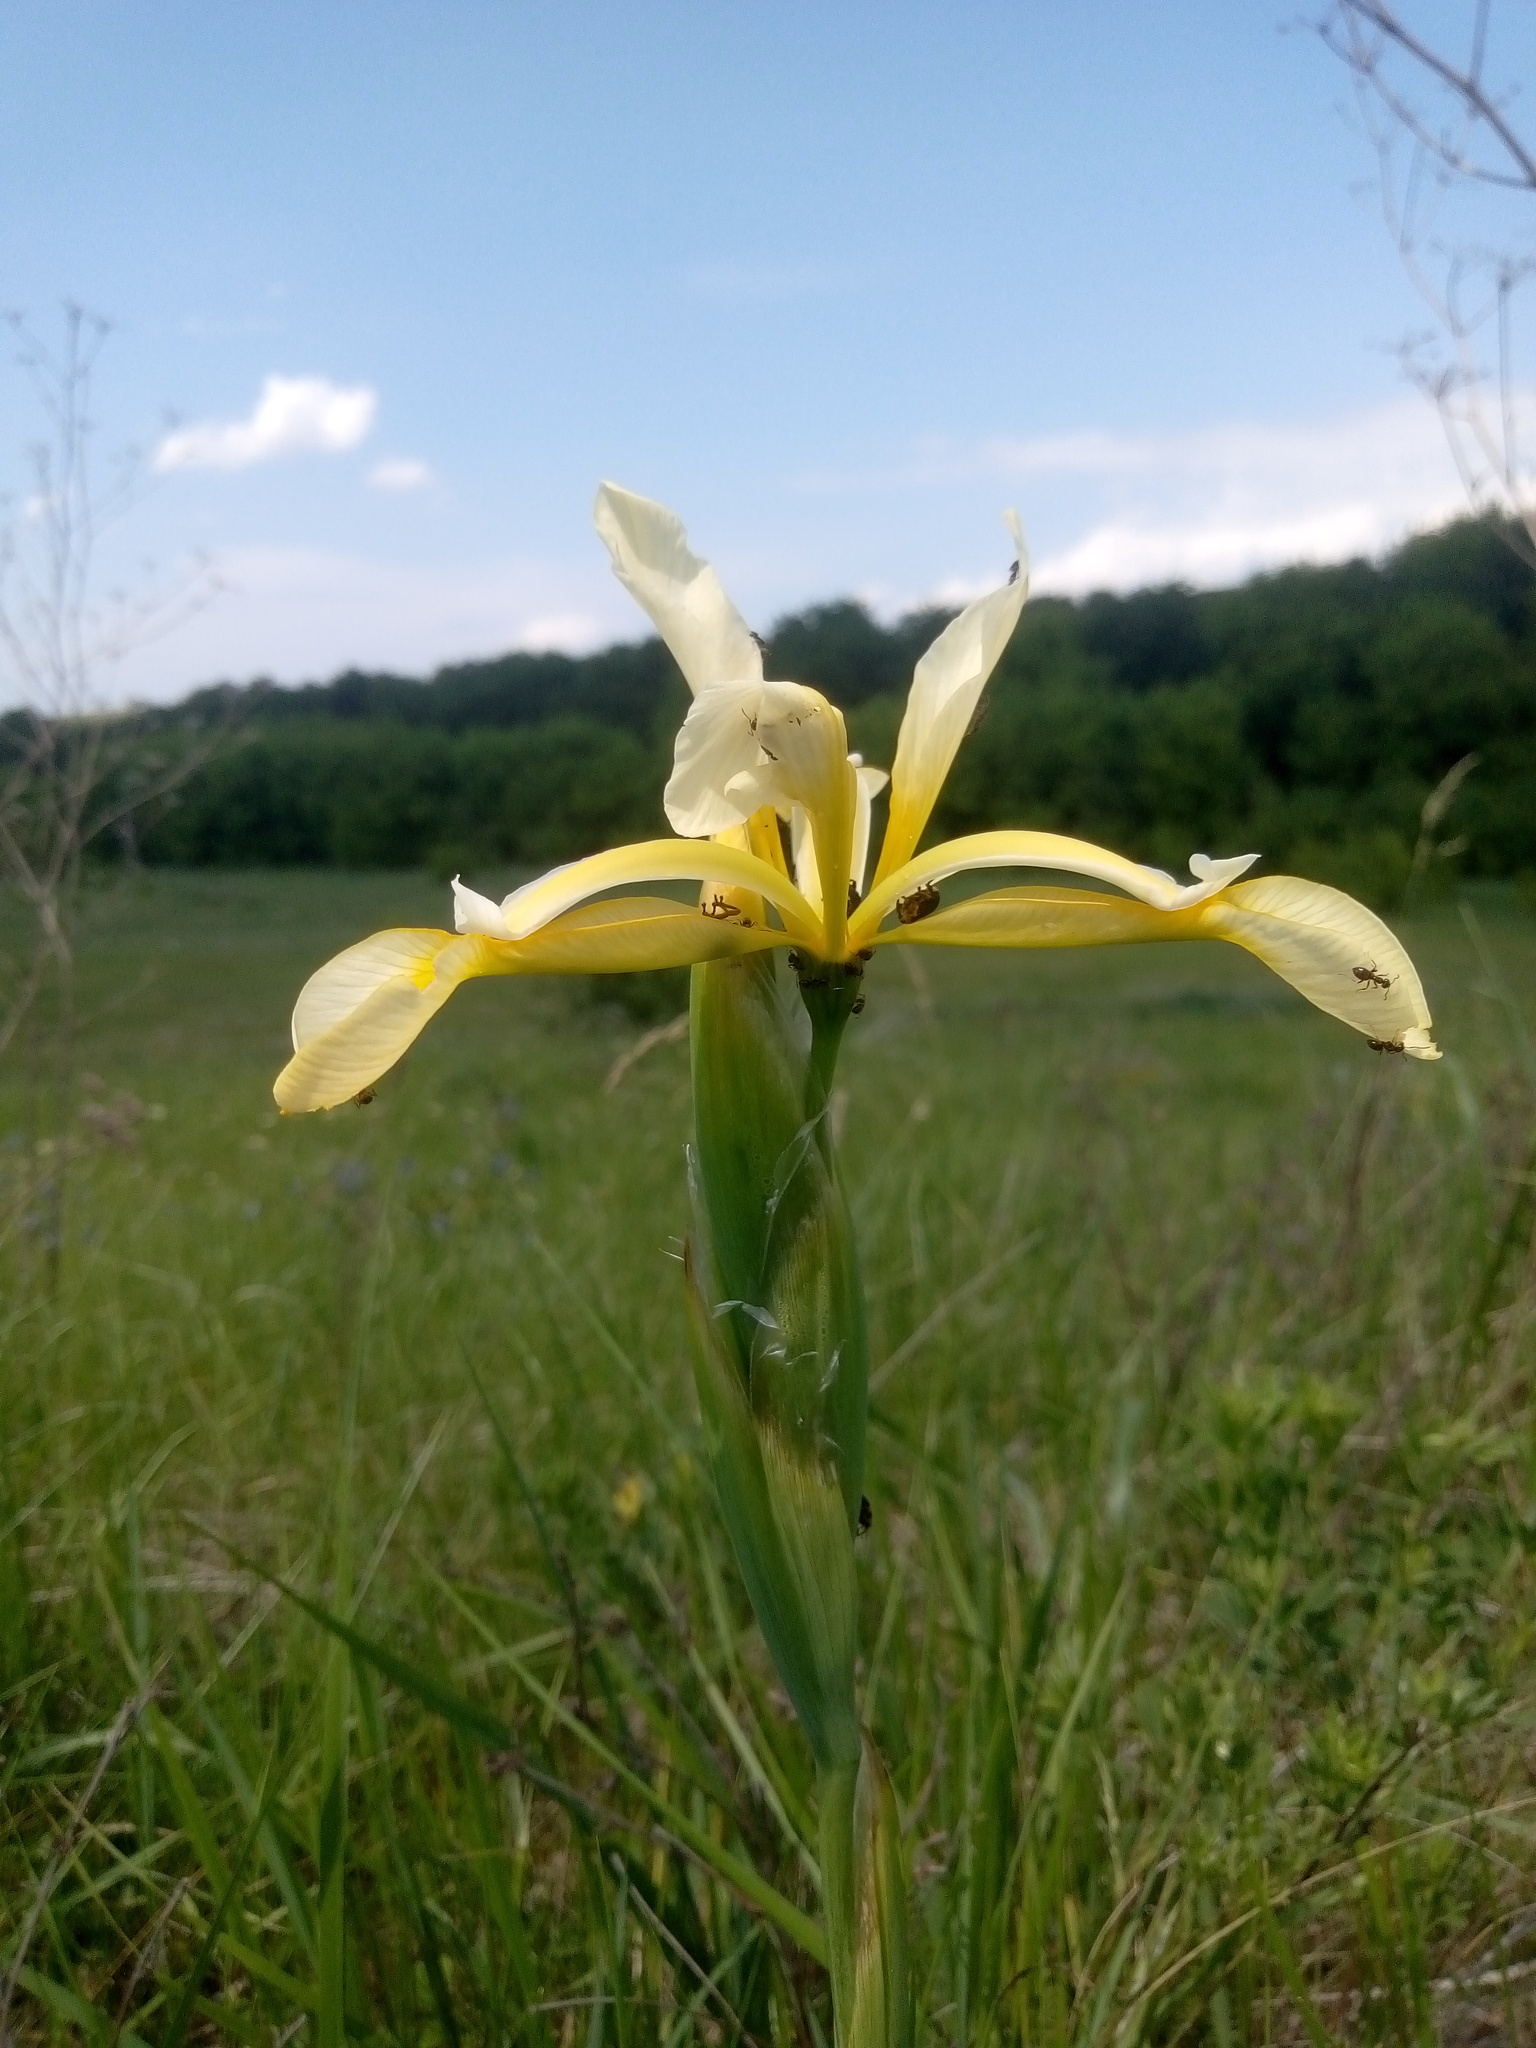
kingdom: Plantae
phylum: Tracheophyta
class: Liliopsida
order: Asparagales
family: Iridaceae
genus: Iris
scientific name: Iris halophila
